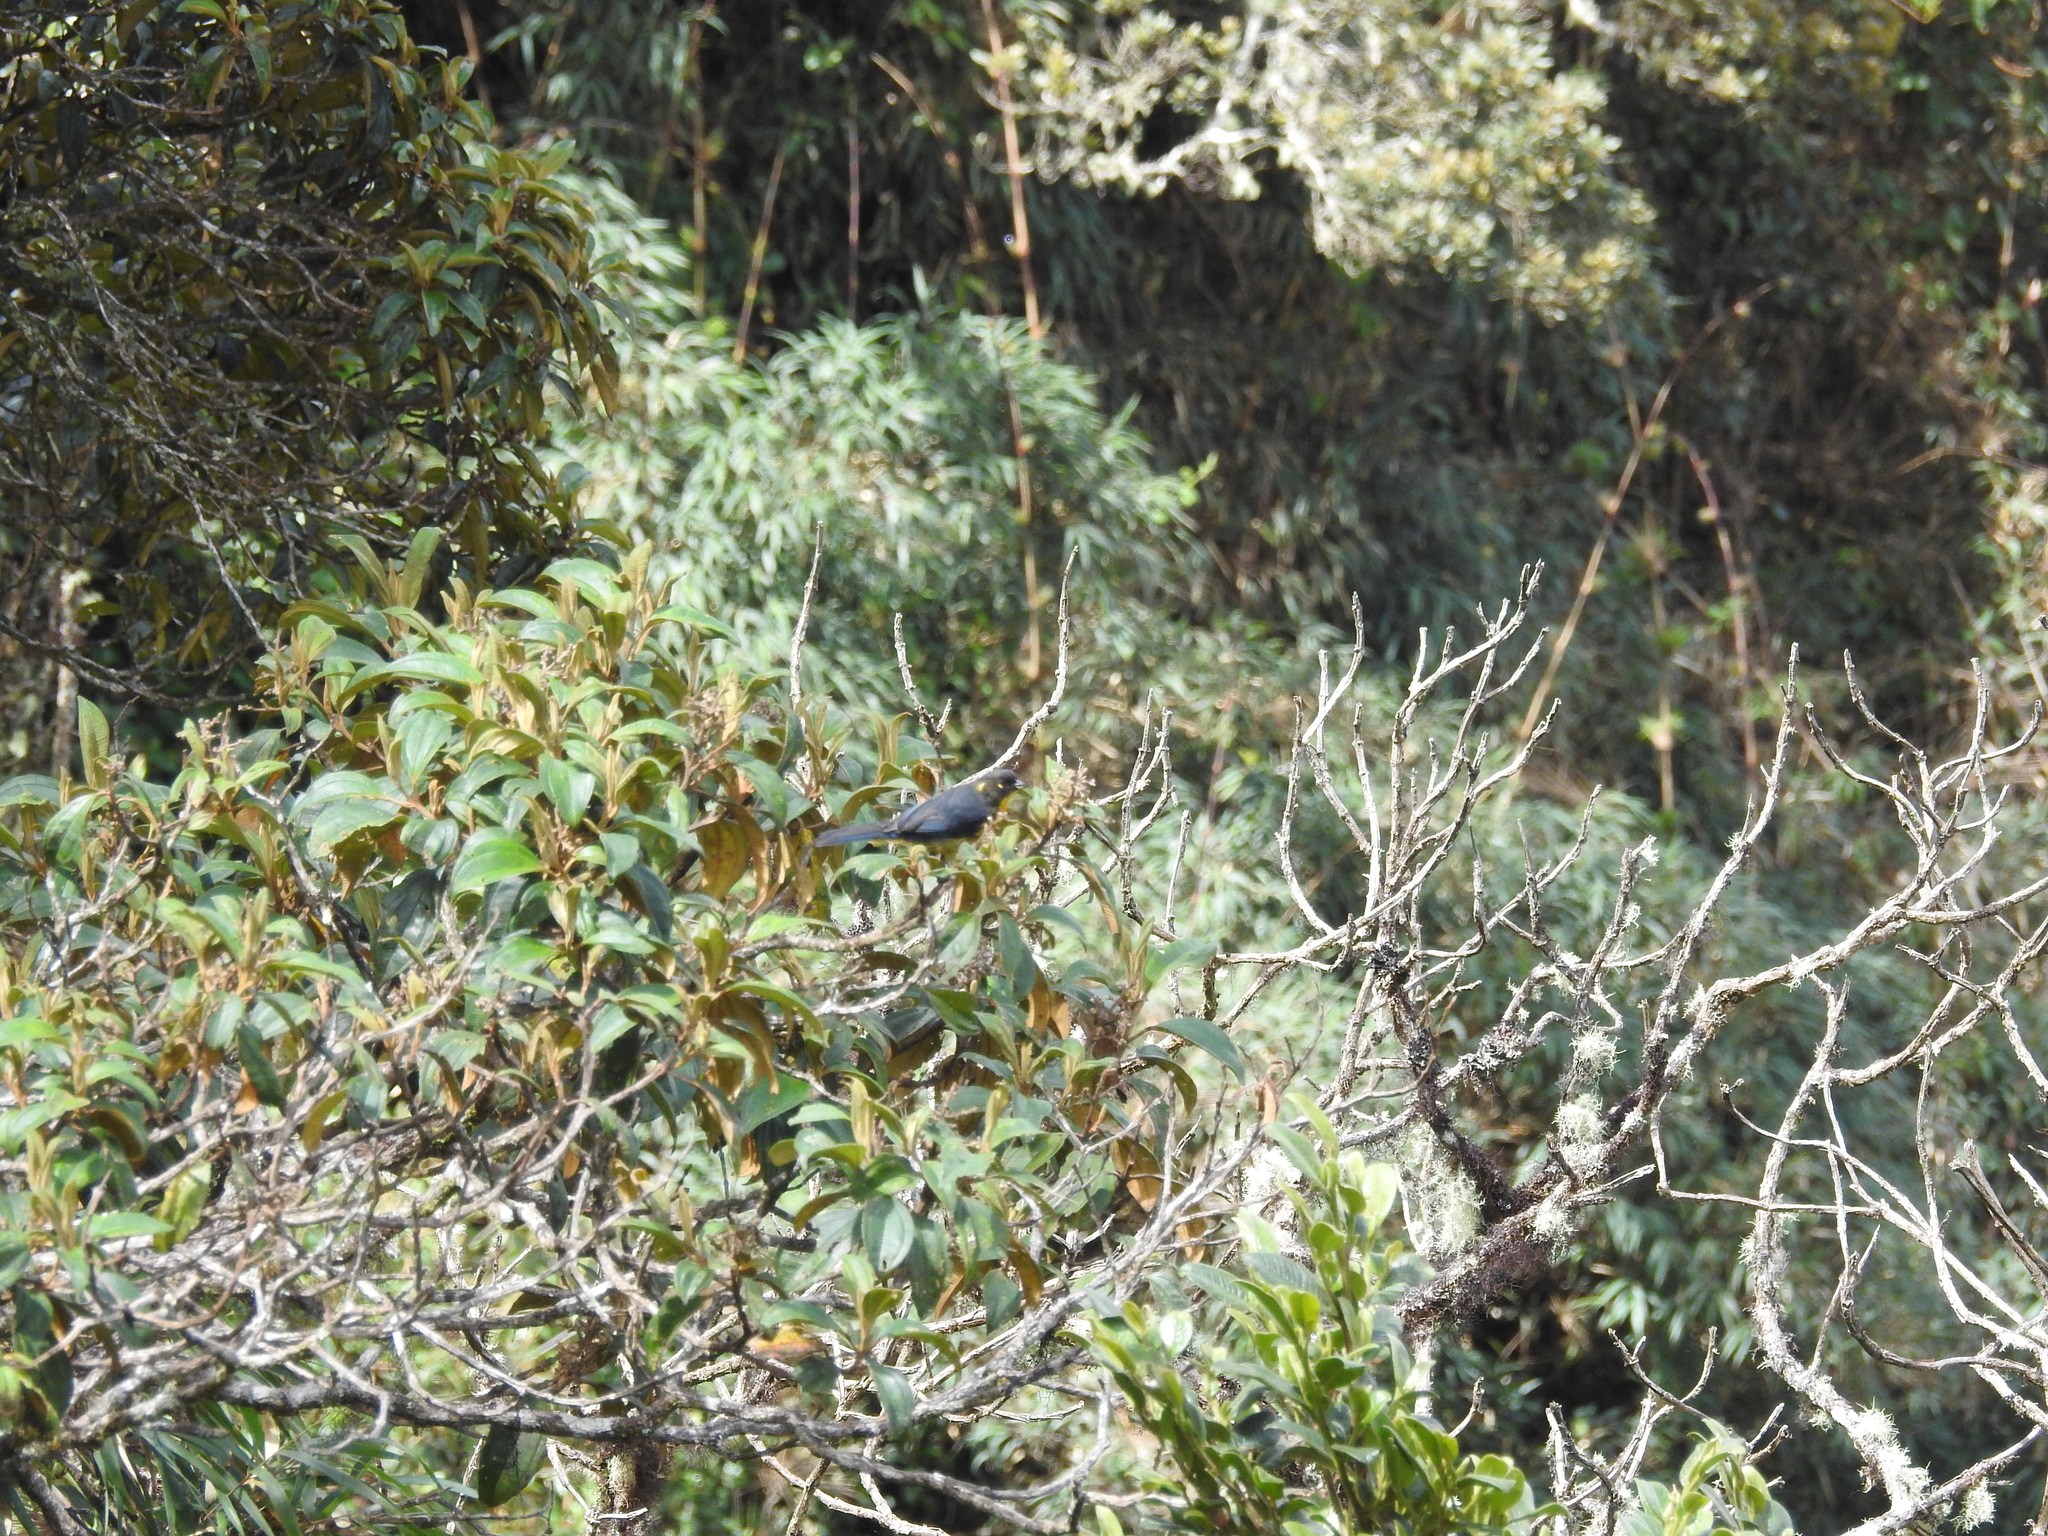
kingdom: Animalia
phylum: Chordata
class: Aves
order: Passeriformes
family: Thraupidae
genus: Anisognathus
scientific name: Anisognathus lacrymosus
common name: Lacrimose mountain-tanager
